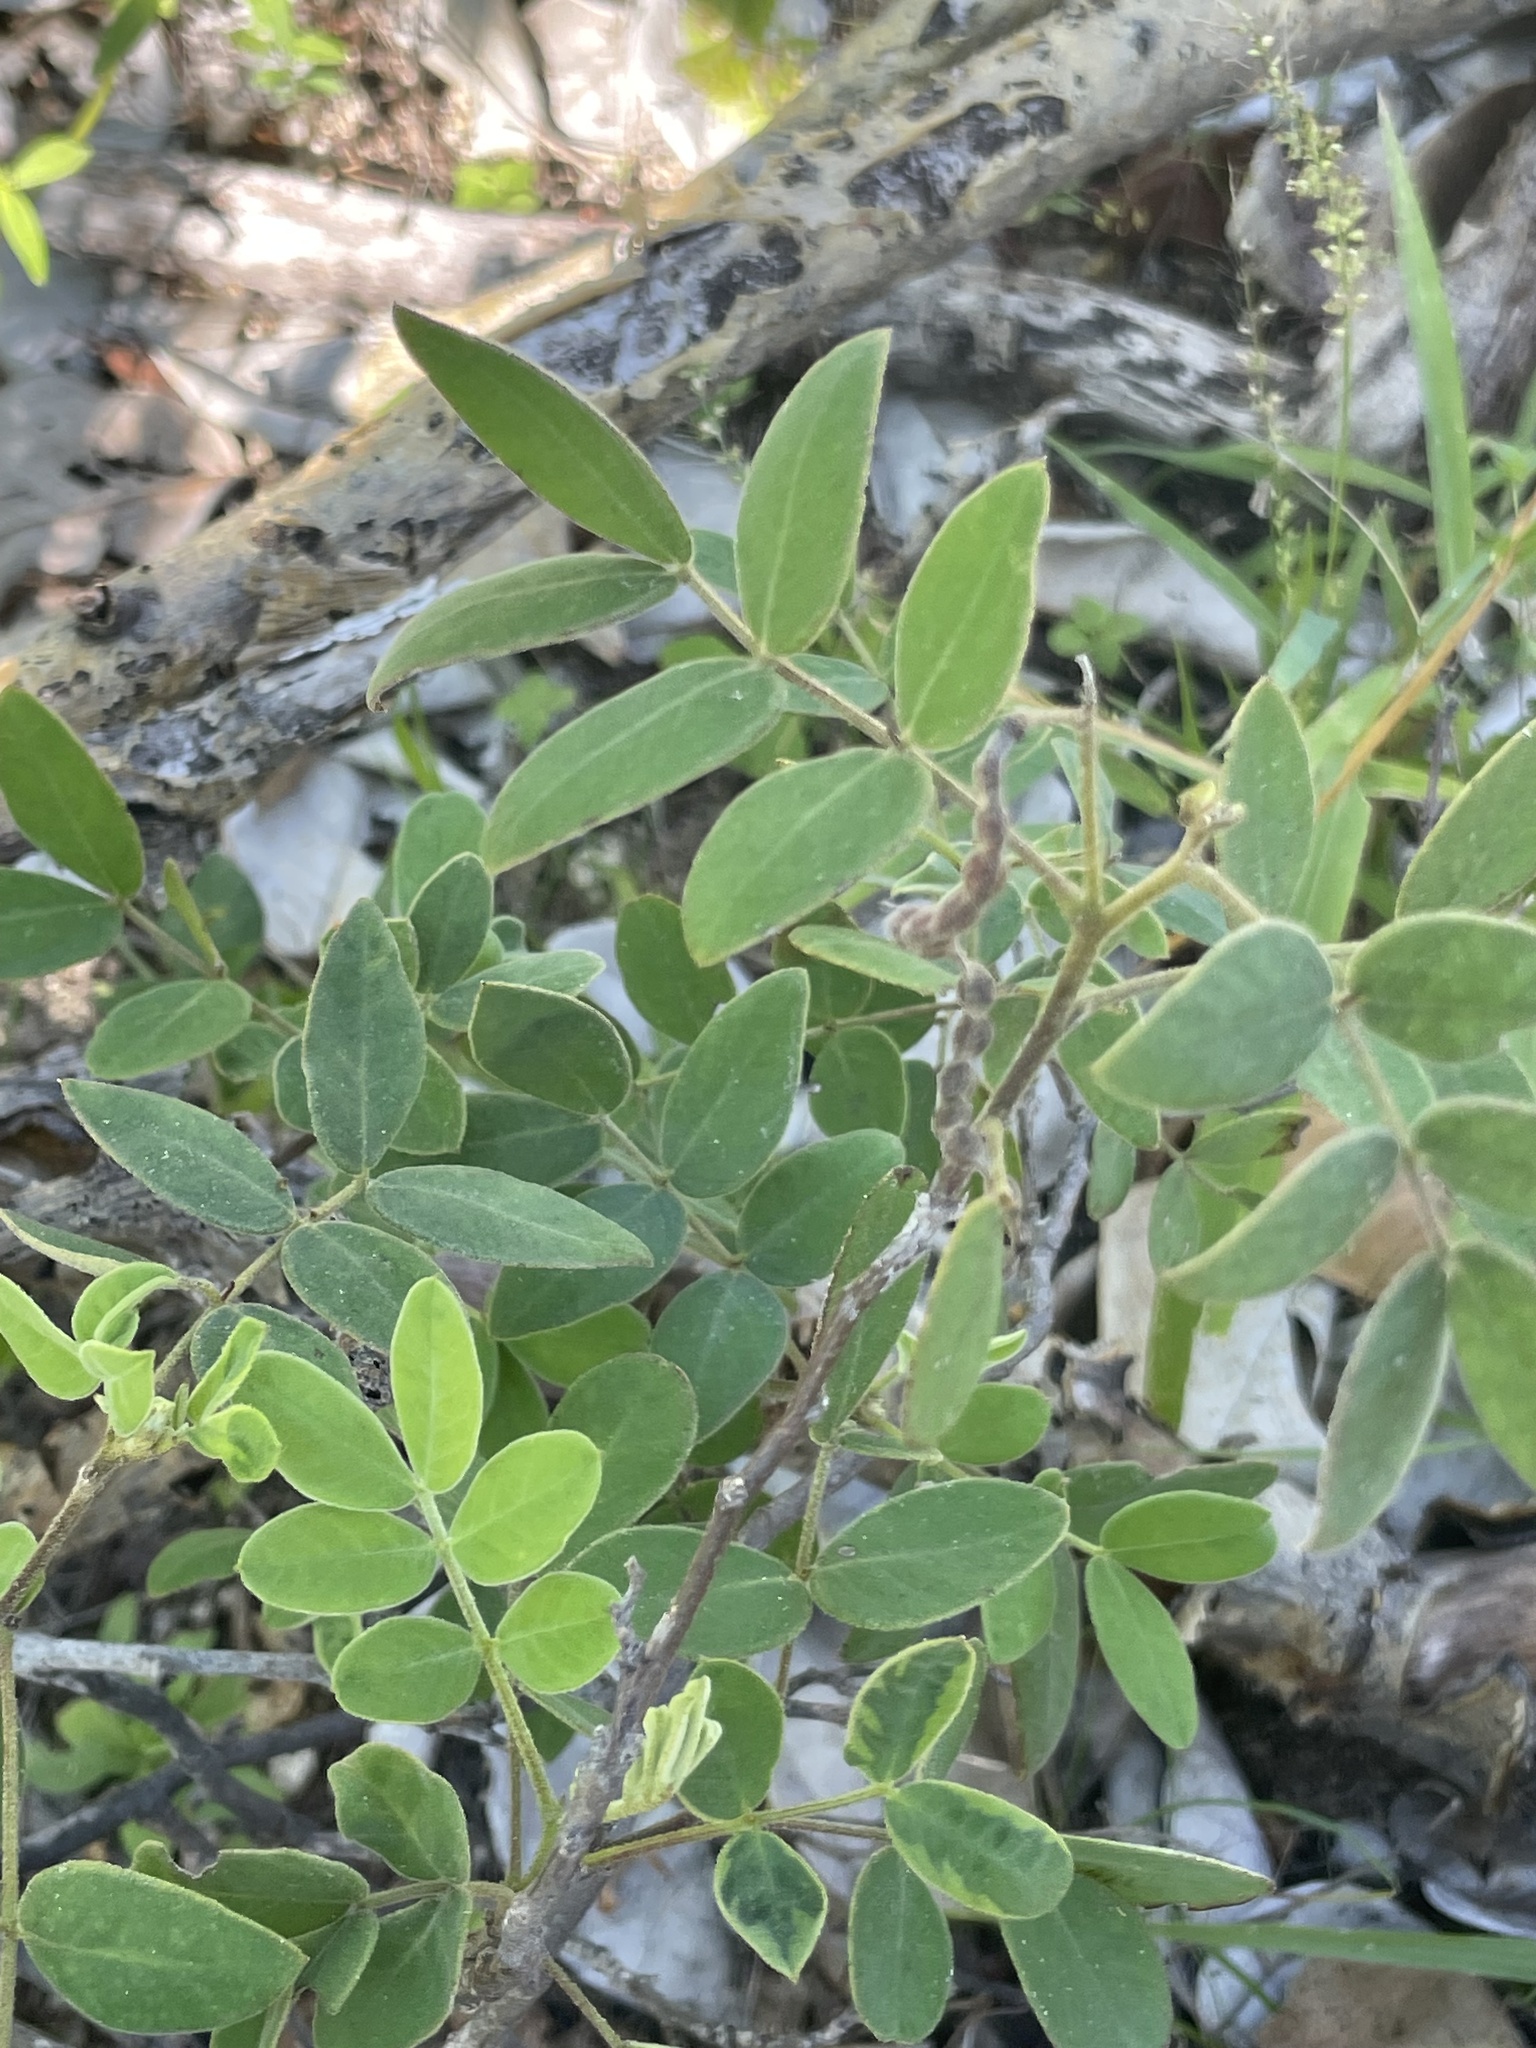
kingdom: Plantae
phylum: Tracheophyta
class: Magnoliopsida
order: Fabales
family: Fabaceae
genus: Senna
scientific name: Senna villosa
